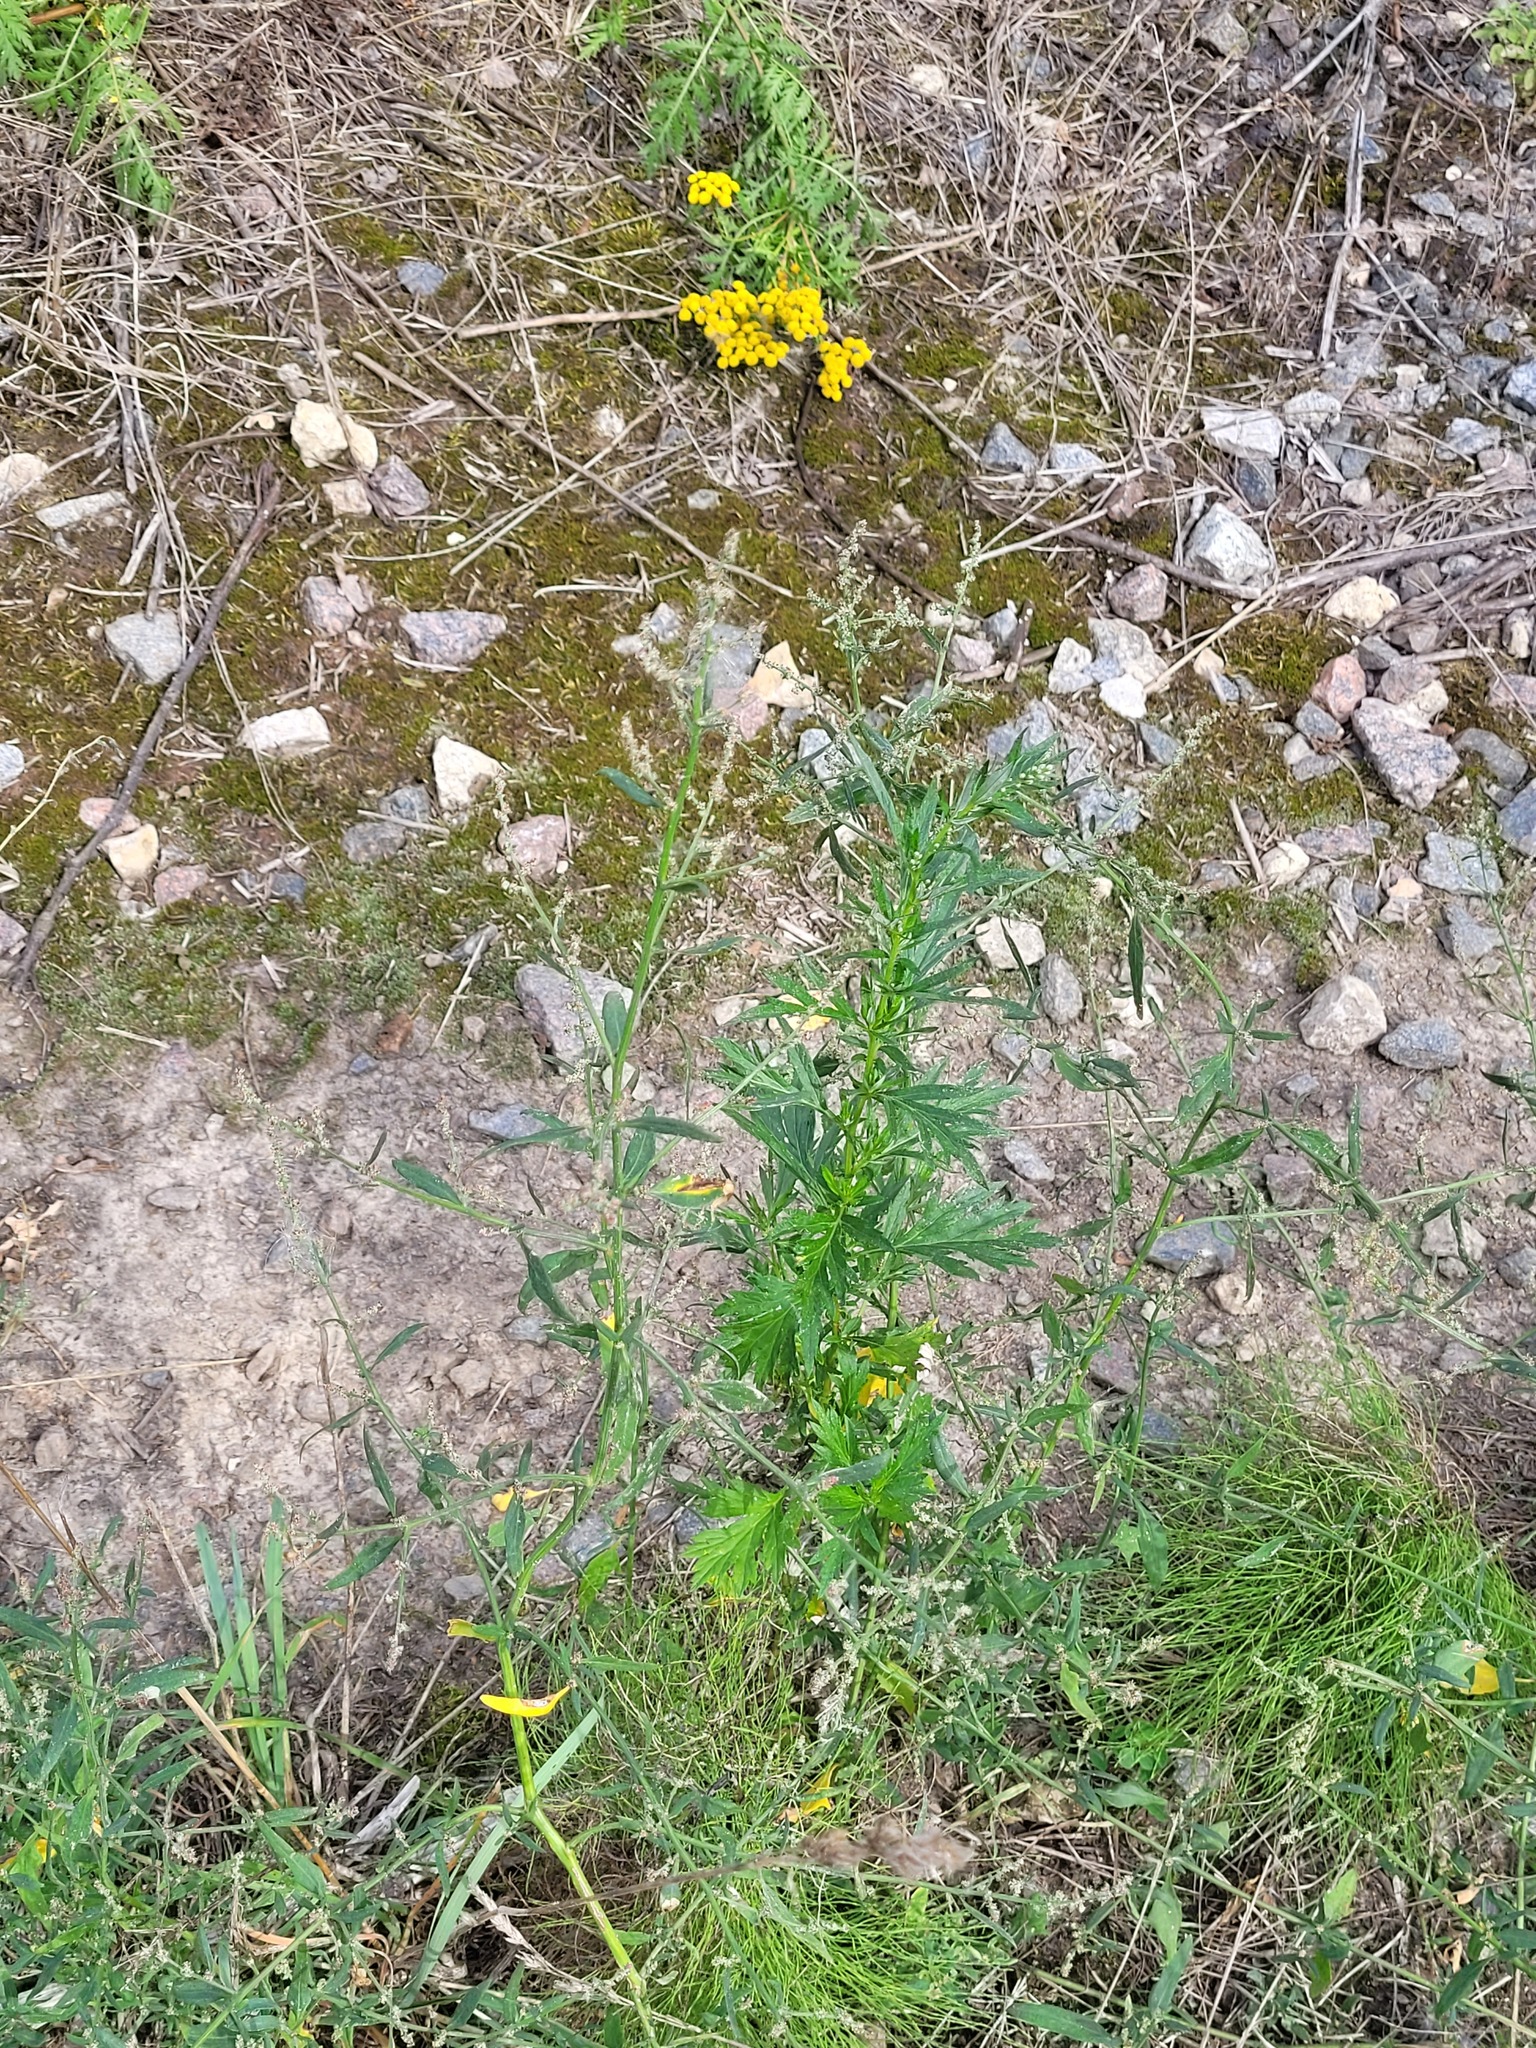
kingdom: Plantae
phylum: Tracheophyta
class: Magnoliopsida
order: Caryophyllales
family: Amaranthaceae
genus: Atriplex
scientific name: Atriplex patula
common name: Common orache
